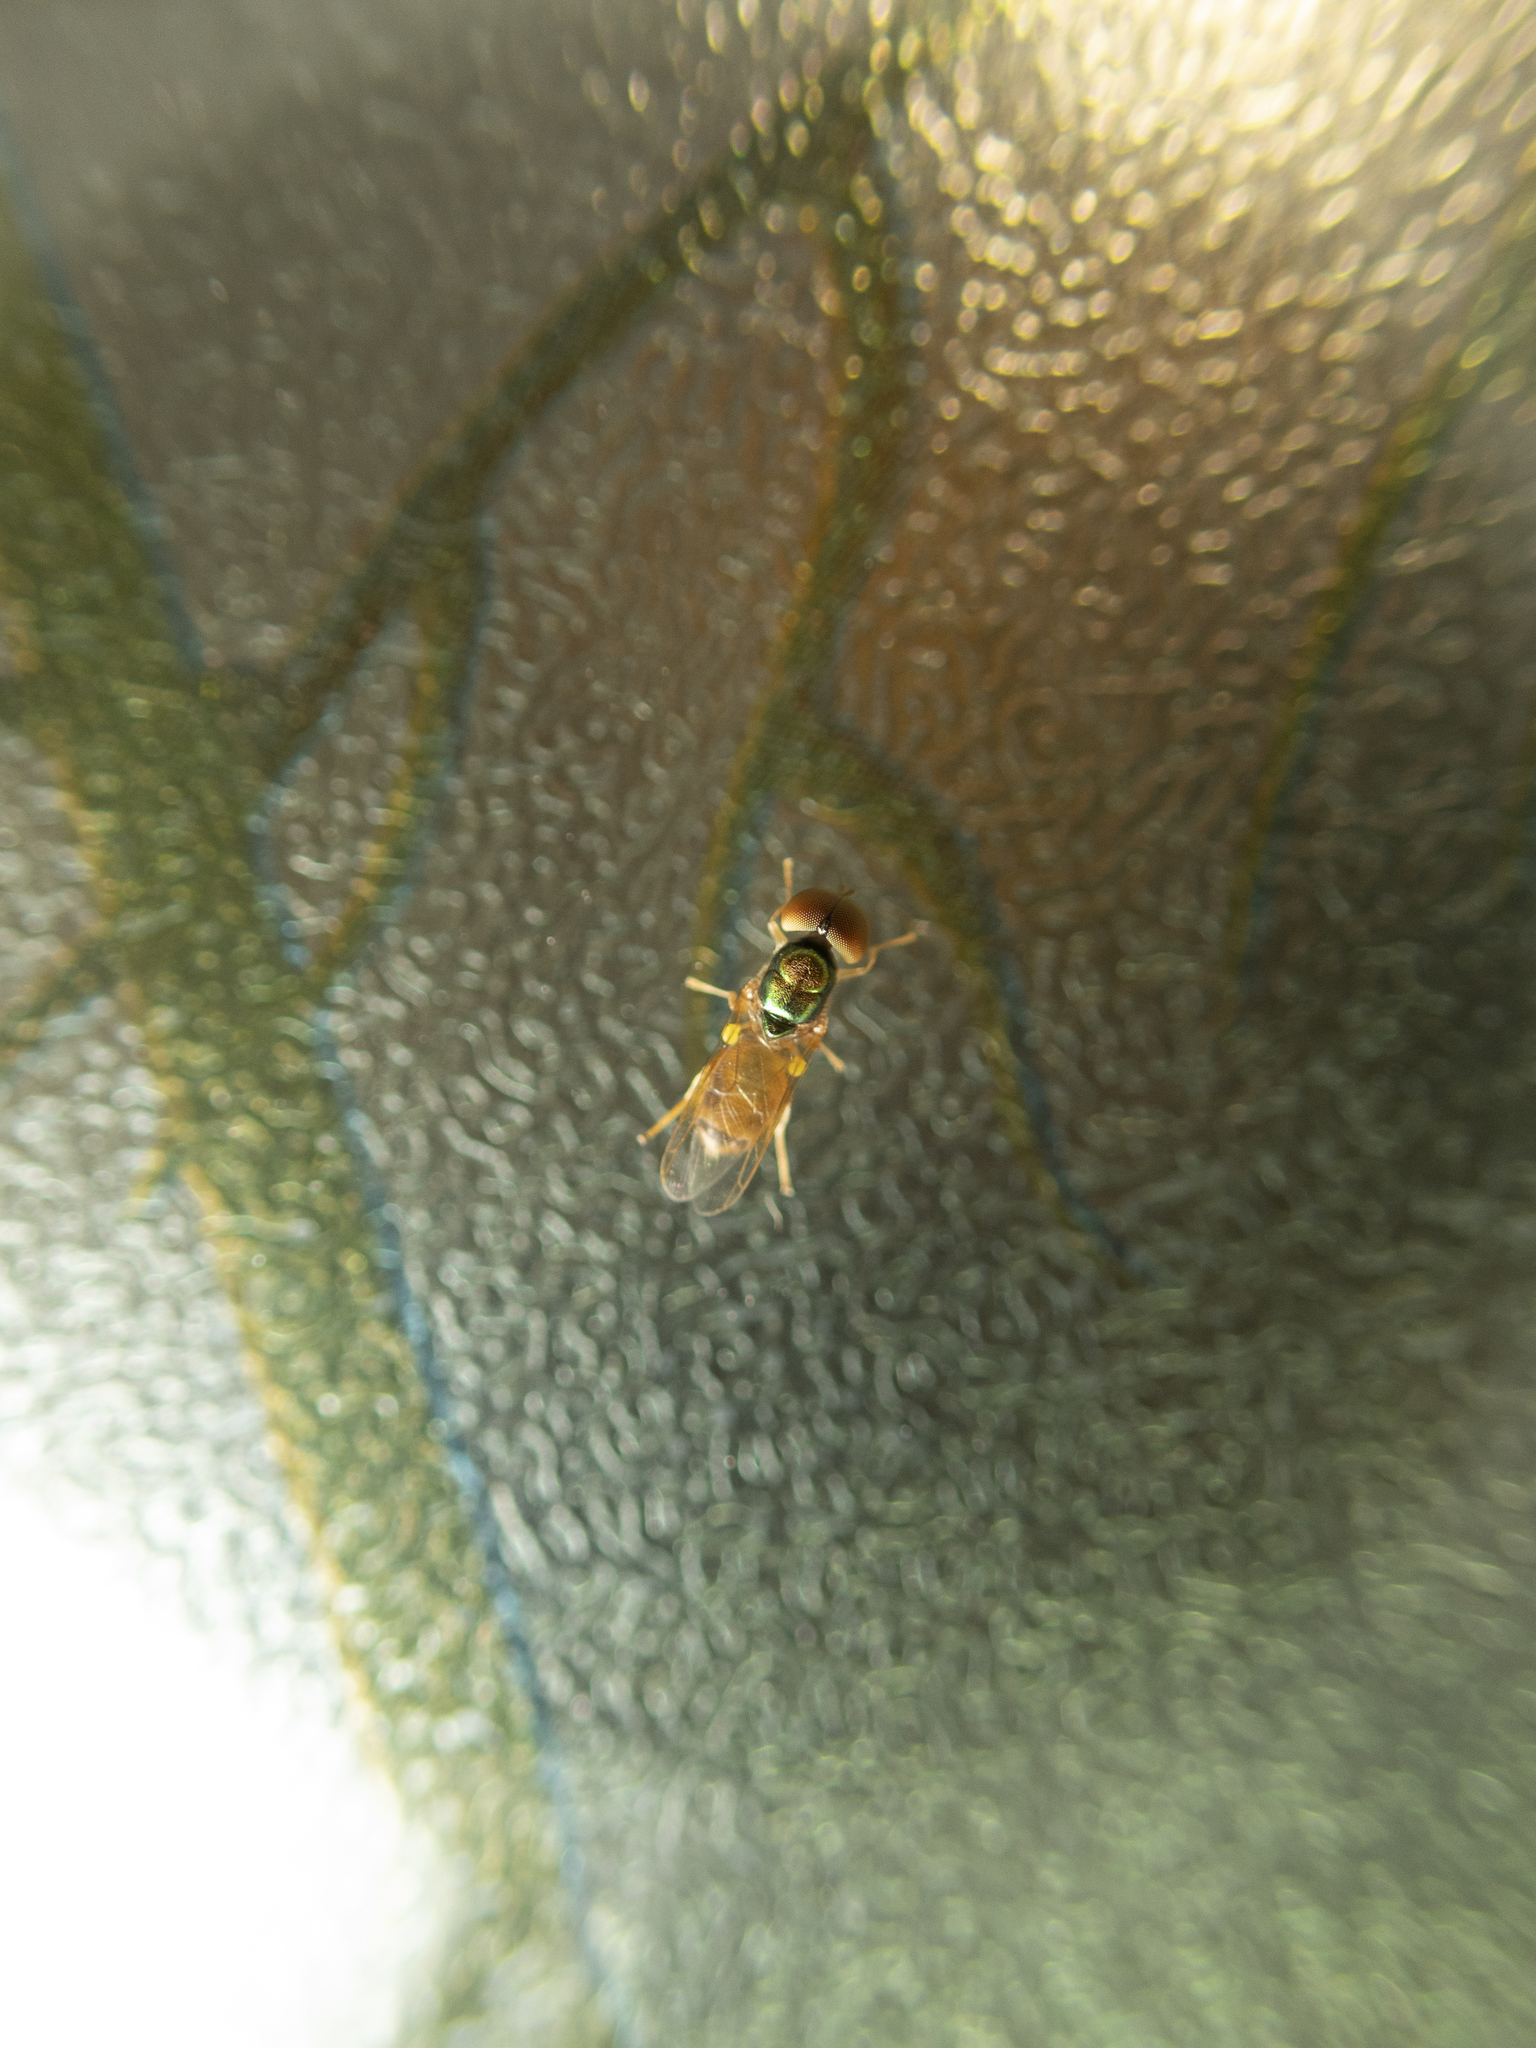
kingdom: Animalia
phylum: Arthropoda
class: Insecta
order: Diptera
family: Stratiomyidae
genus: Microchrysa
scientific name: Microchrysa flaviventris
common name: Soldier fly
